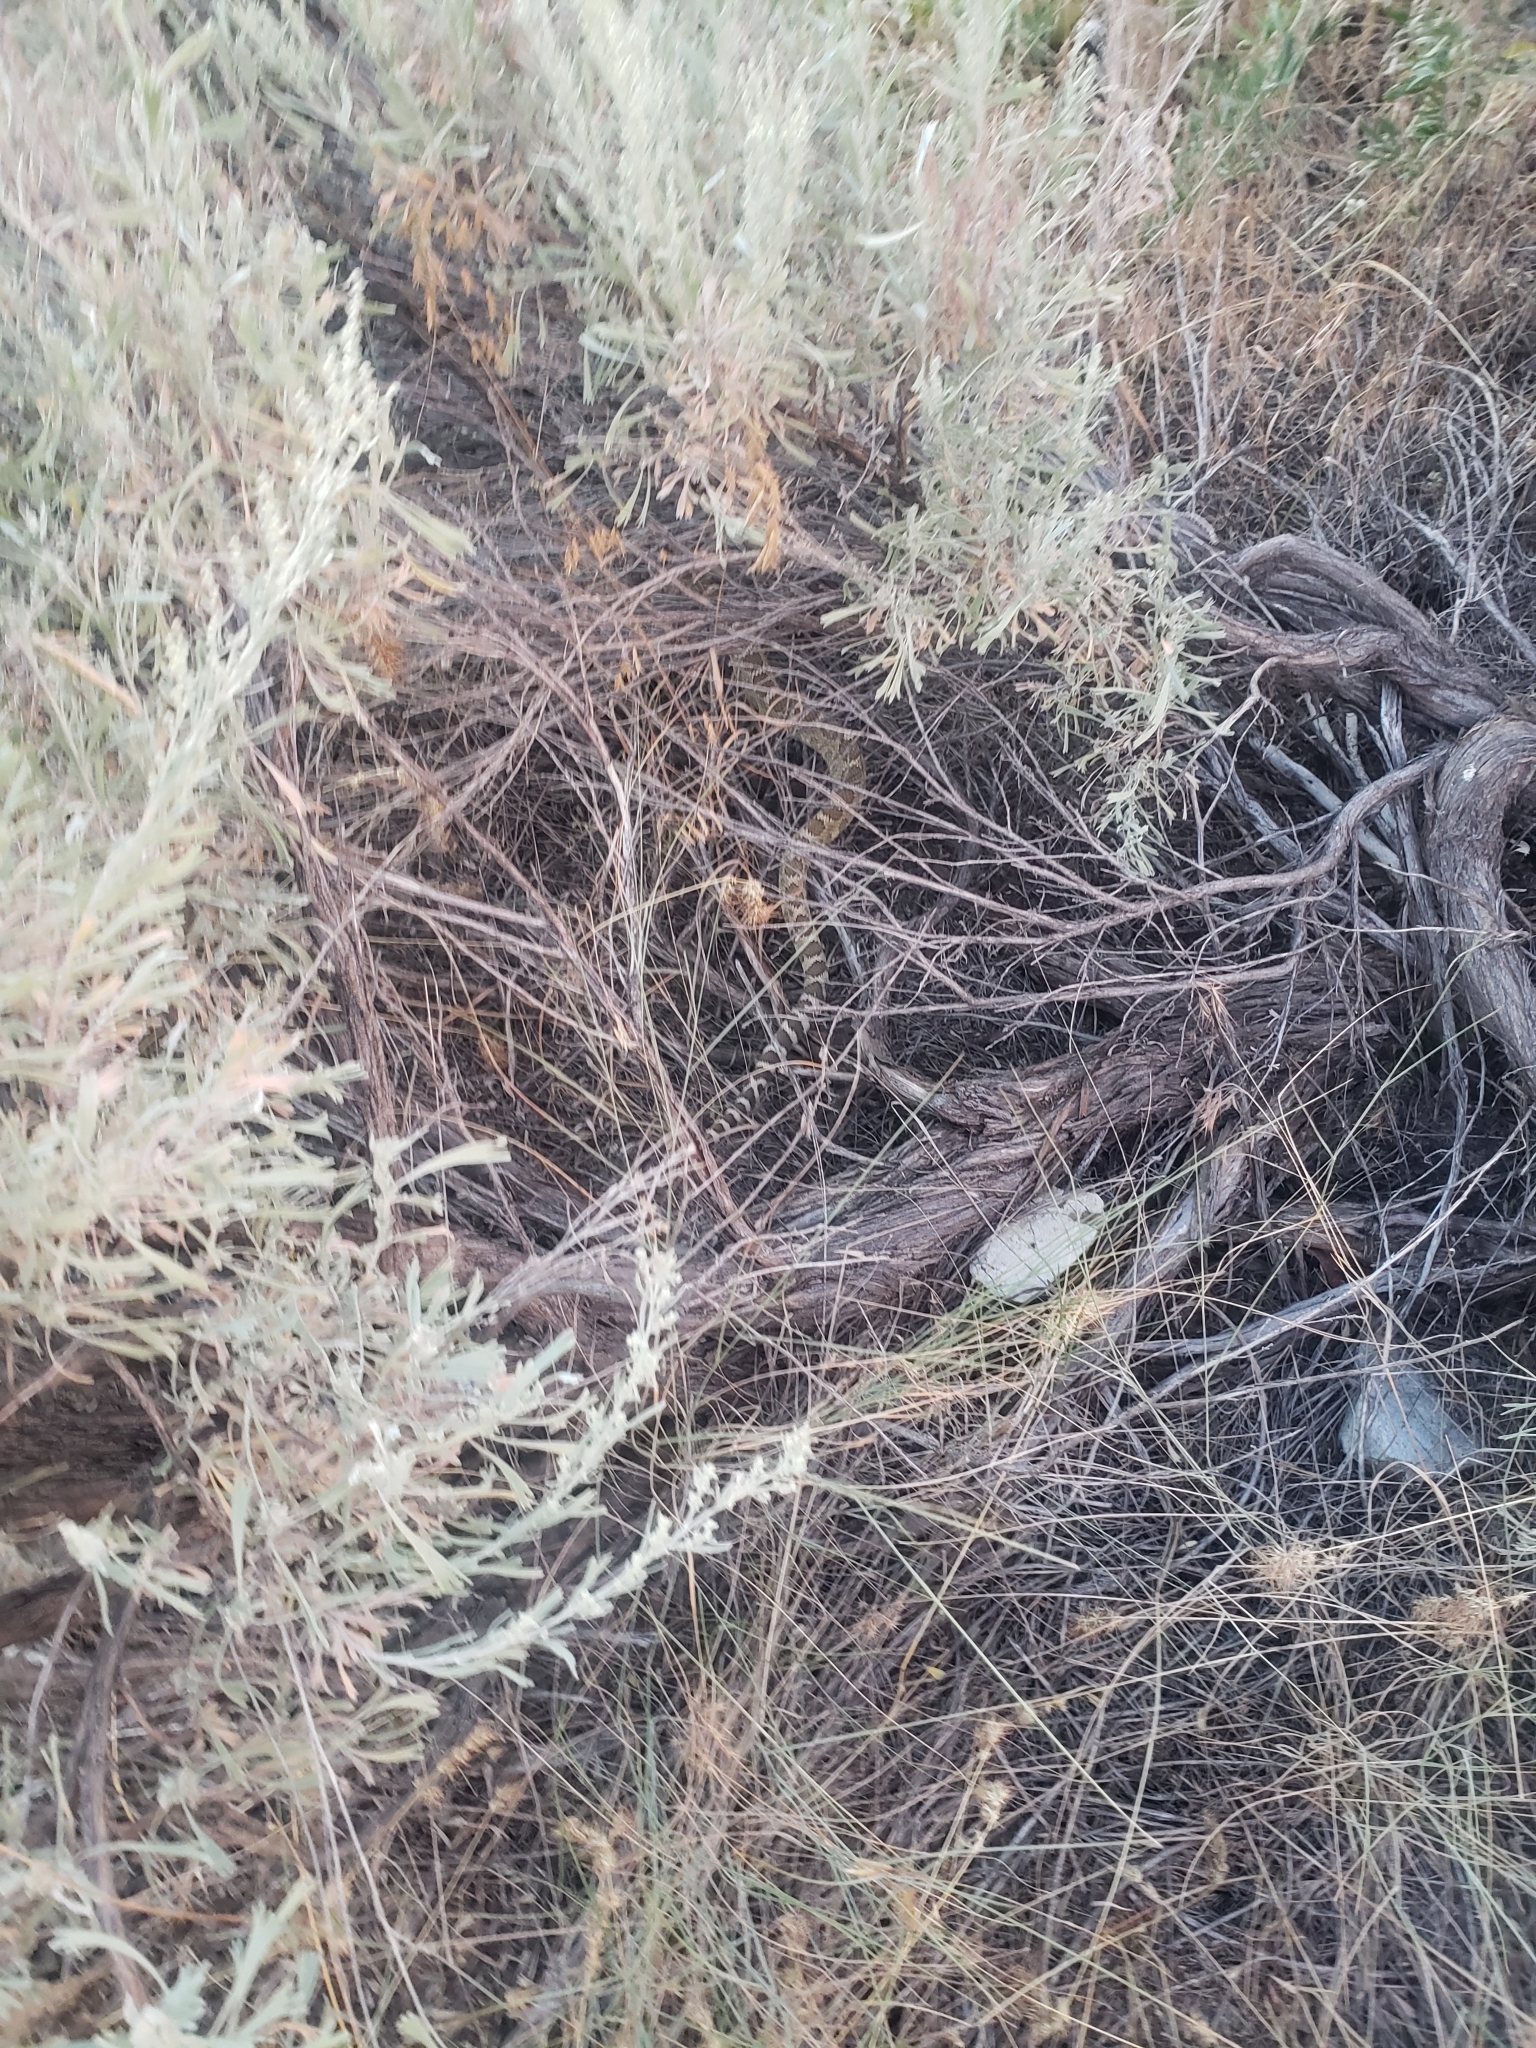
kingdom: Animalia
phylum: Chordata
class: Squamata
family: Viperidae
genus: Crotalus
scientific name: Crotalus oreganus
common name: Abyssus
